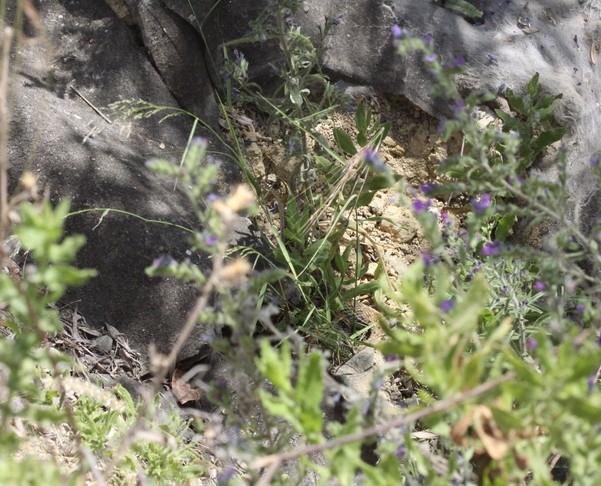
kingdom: Animalia
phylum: Chordata
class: Squamata
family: Psammophiidae
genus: Malpolon
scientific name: Malpolon monspessulanus
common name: Montpellier snake
